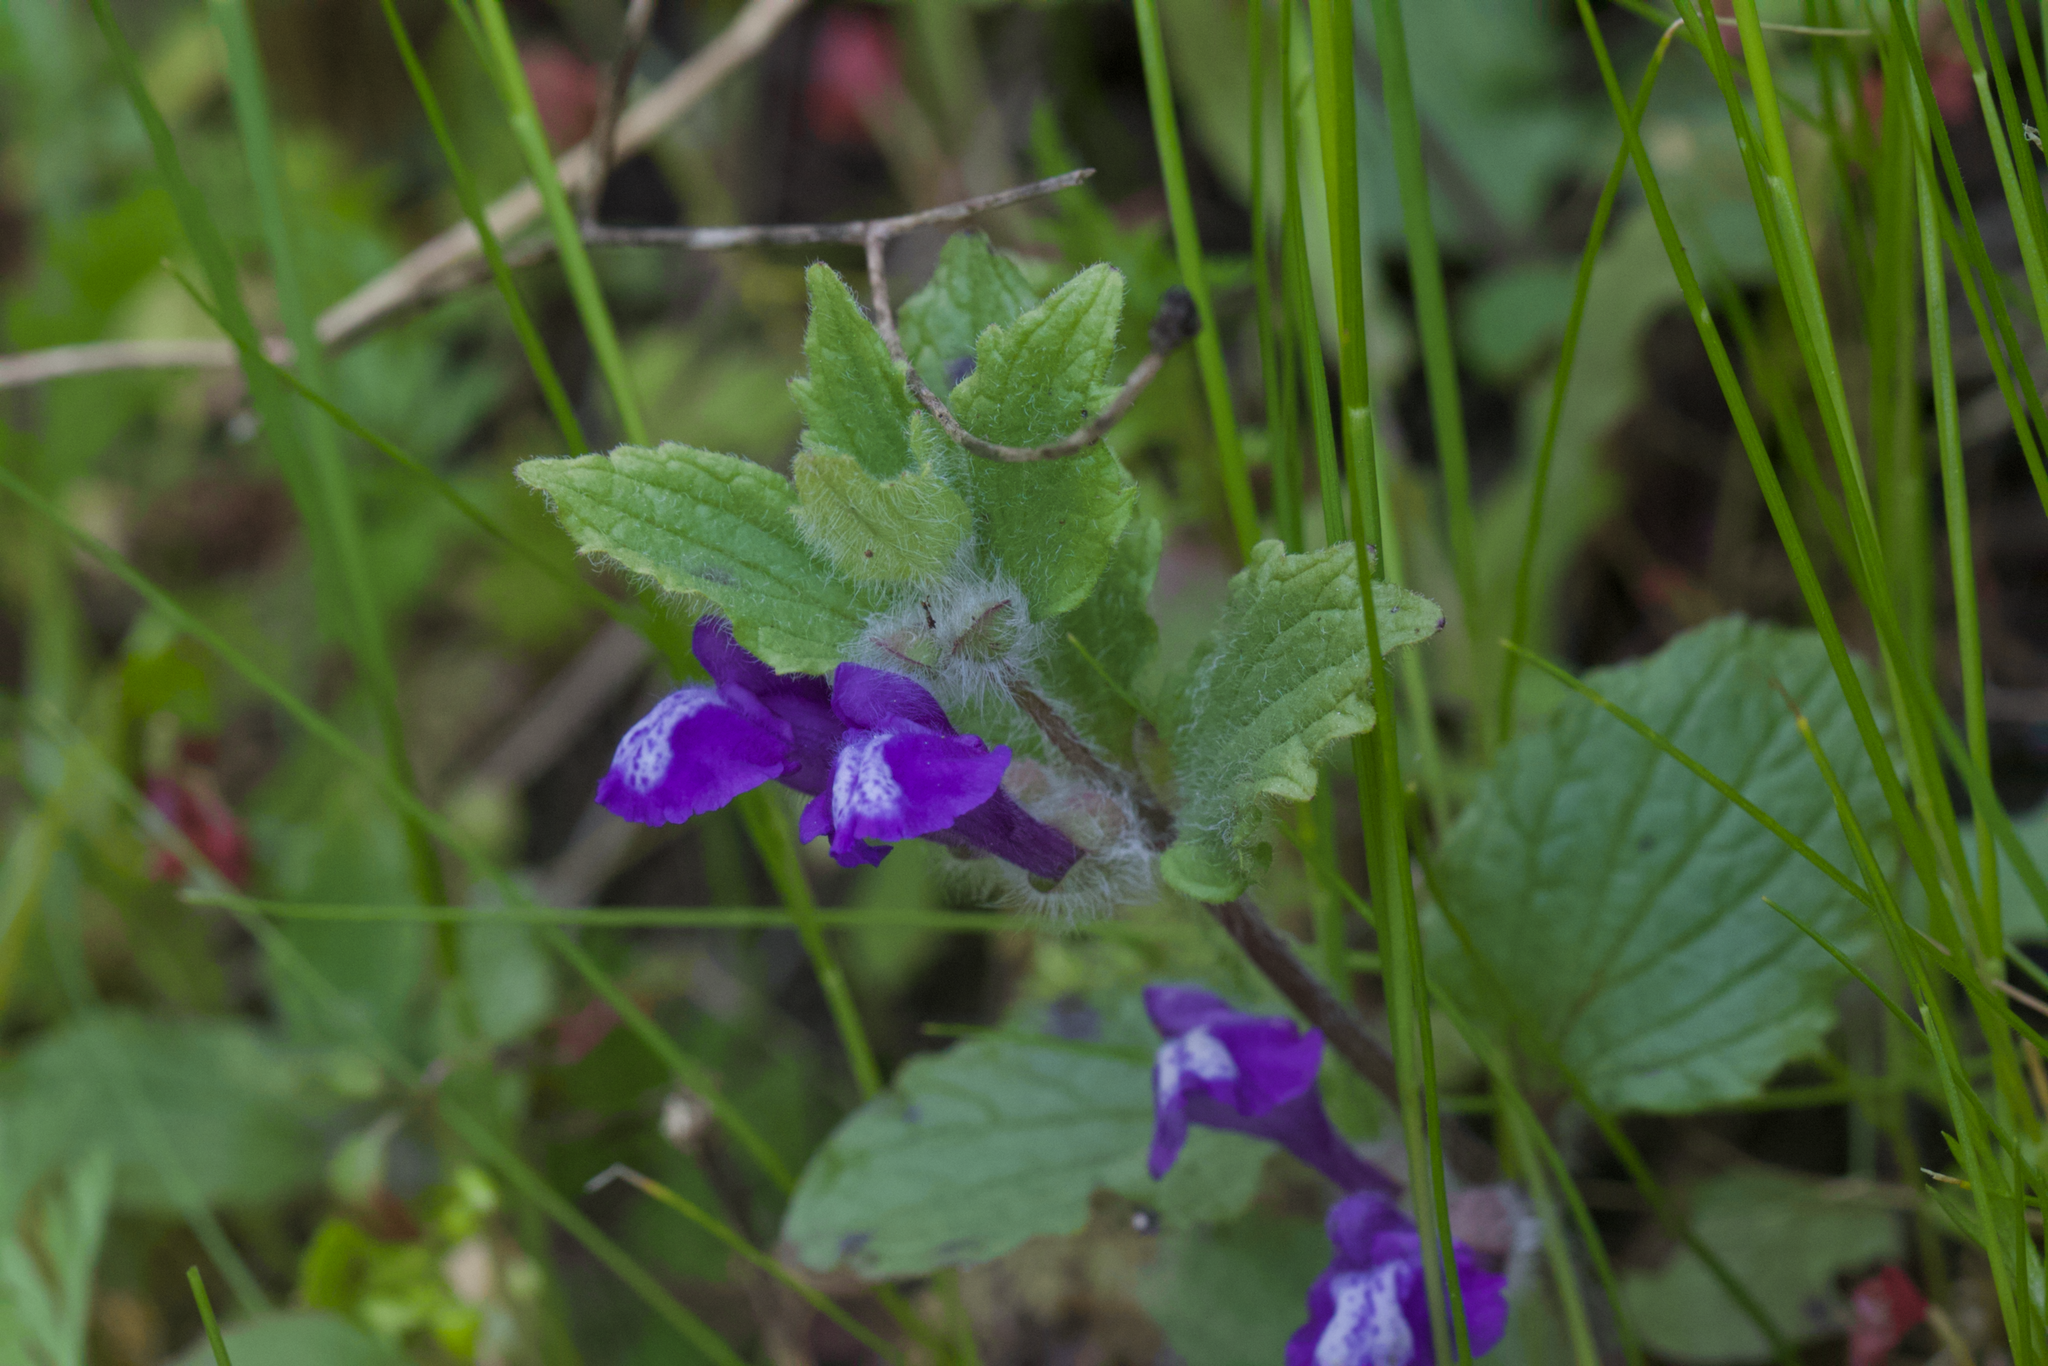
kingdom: Plantae
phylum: Tracheophyta
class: Magnoliopsida
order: Lamiales
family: Lamiaceae
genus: Scutellaria
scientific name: Scutellaria tuberosa
